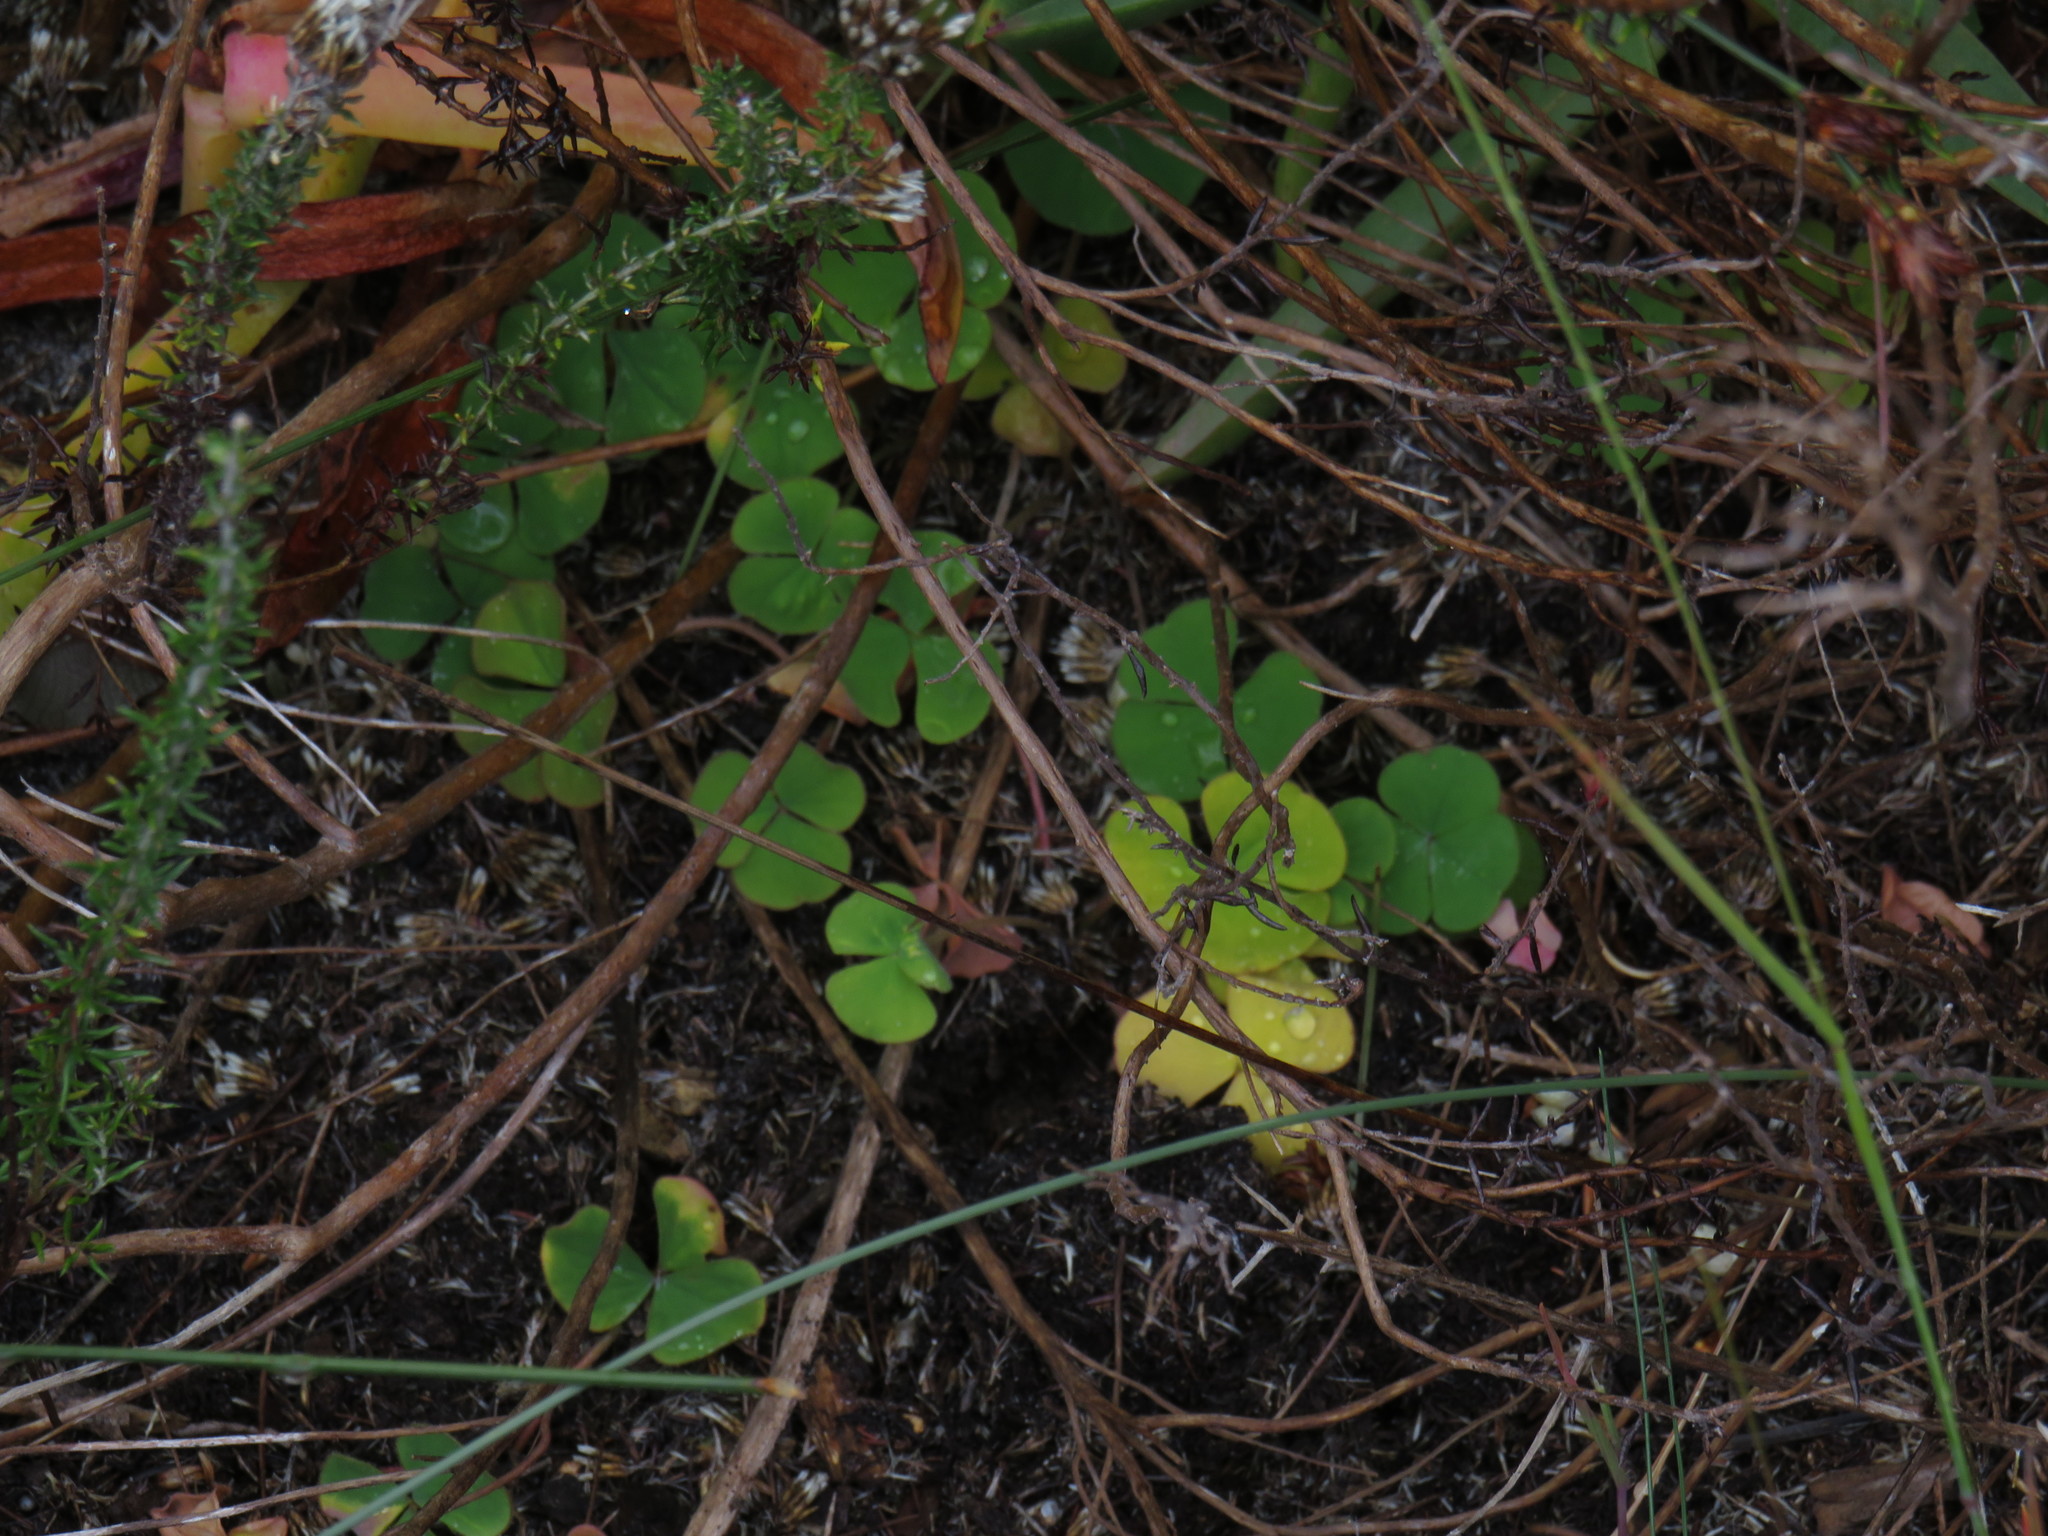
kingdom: Plantae
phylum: Tracheophyta
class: Magnoliopsida
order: Oxalidales
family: Oxalidaceae
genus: Oxalis
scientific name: Oxalis purpurea
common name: Purple woodsorrel
